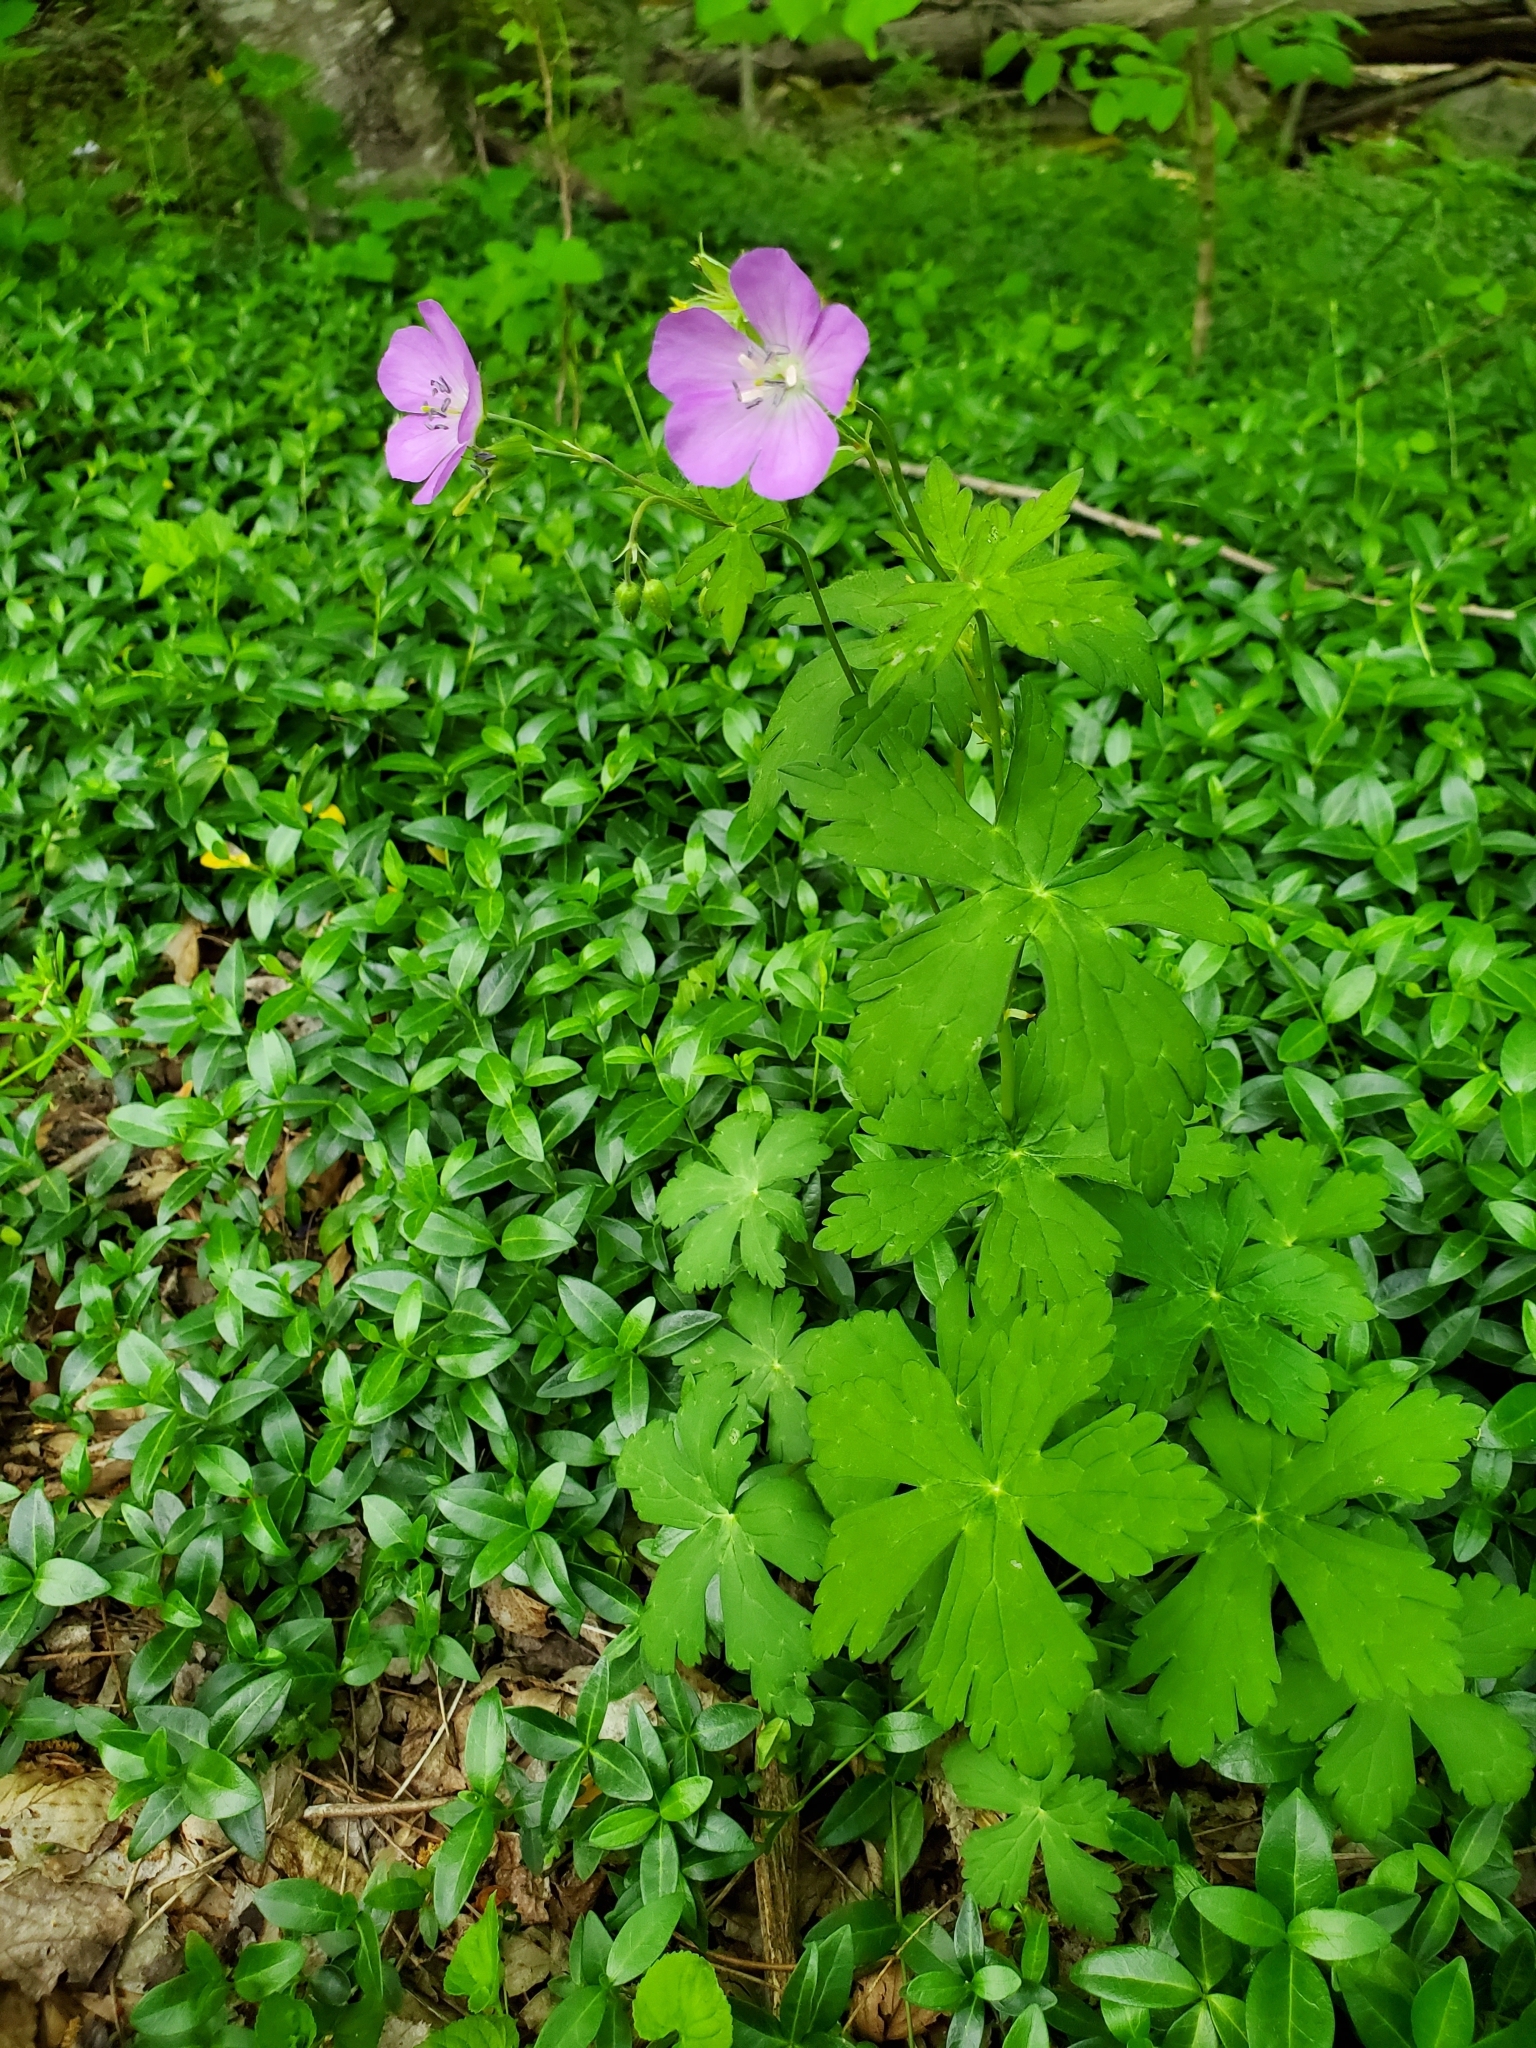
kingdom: Plantae
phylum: Tracheophyta
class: Magnoliopsida
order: Geraniales
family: Geraniaceae
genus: Geranium
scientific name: Geranium maculatum
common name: Spotted geranium
